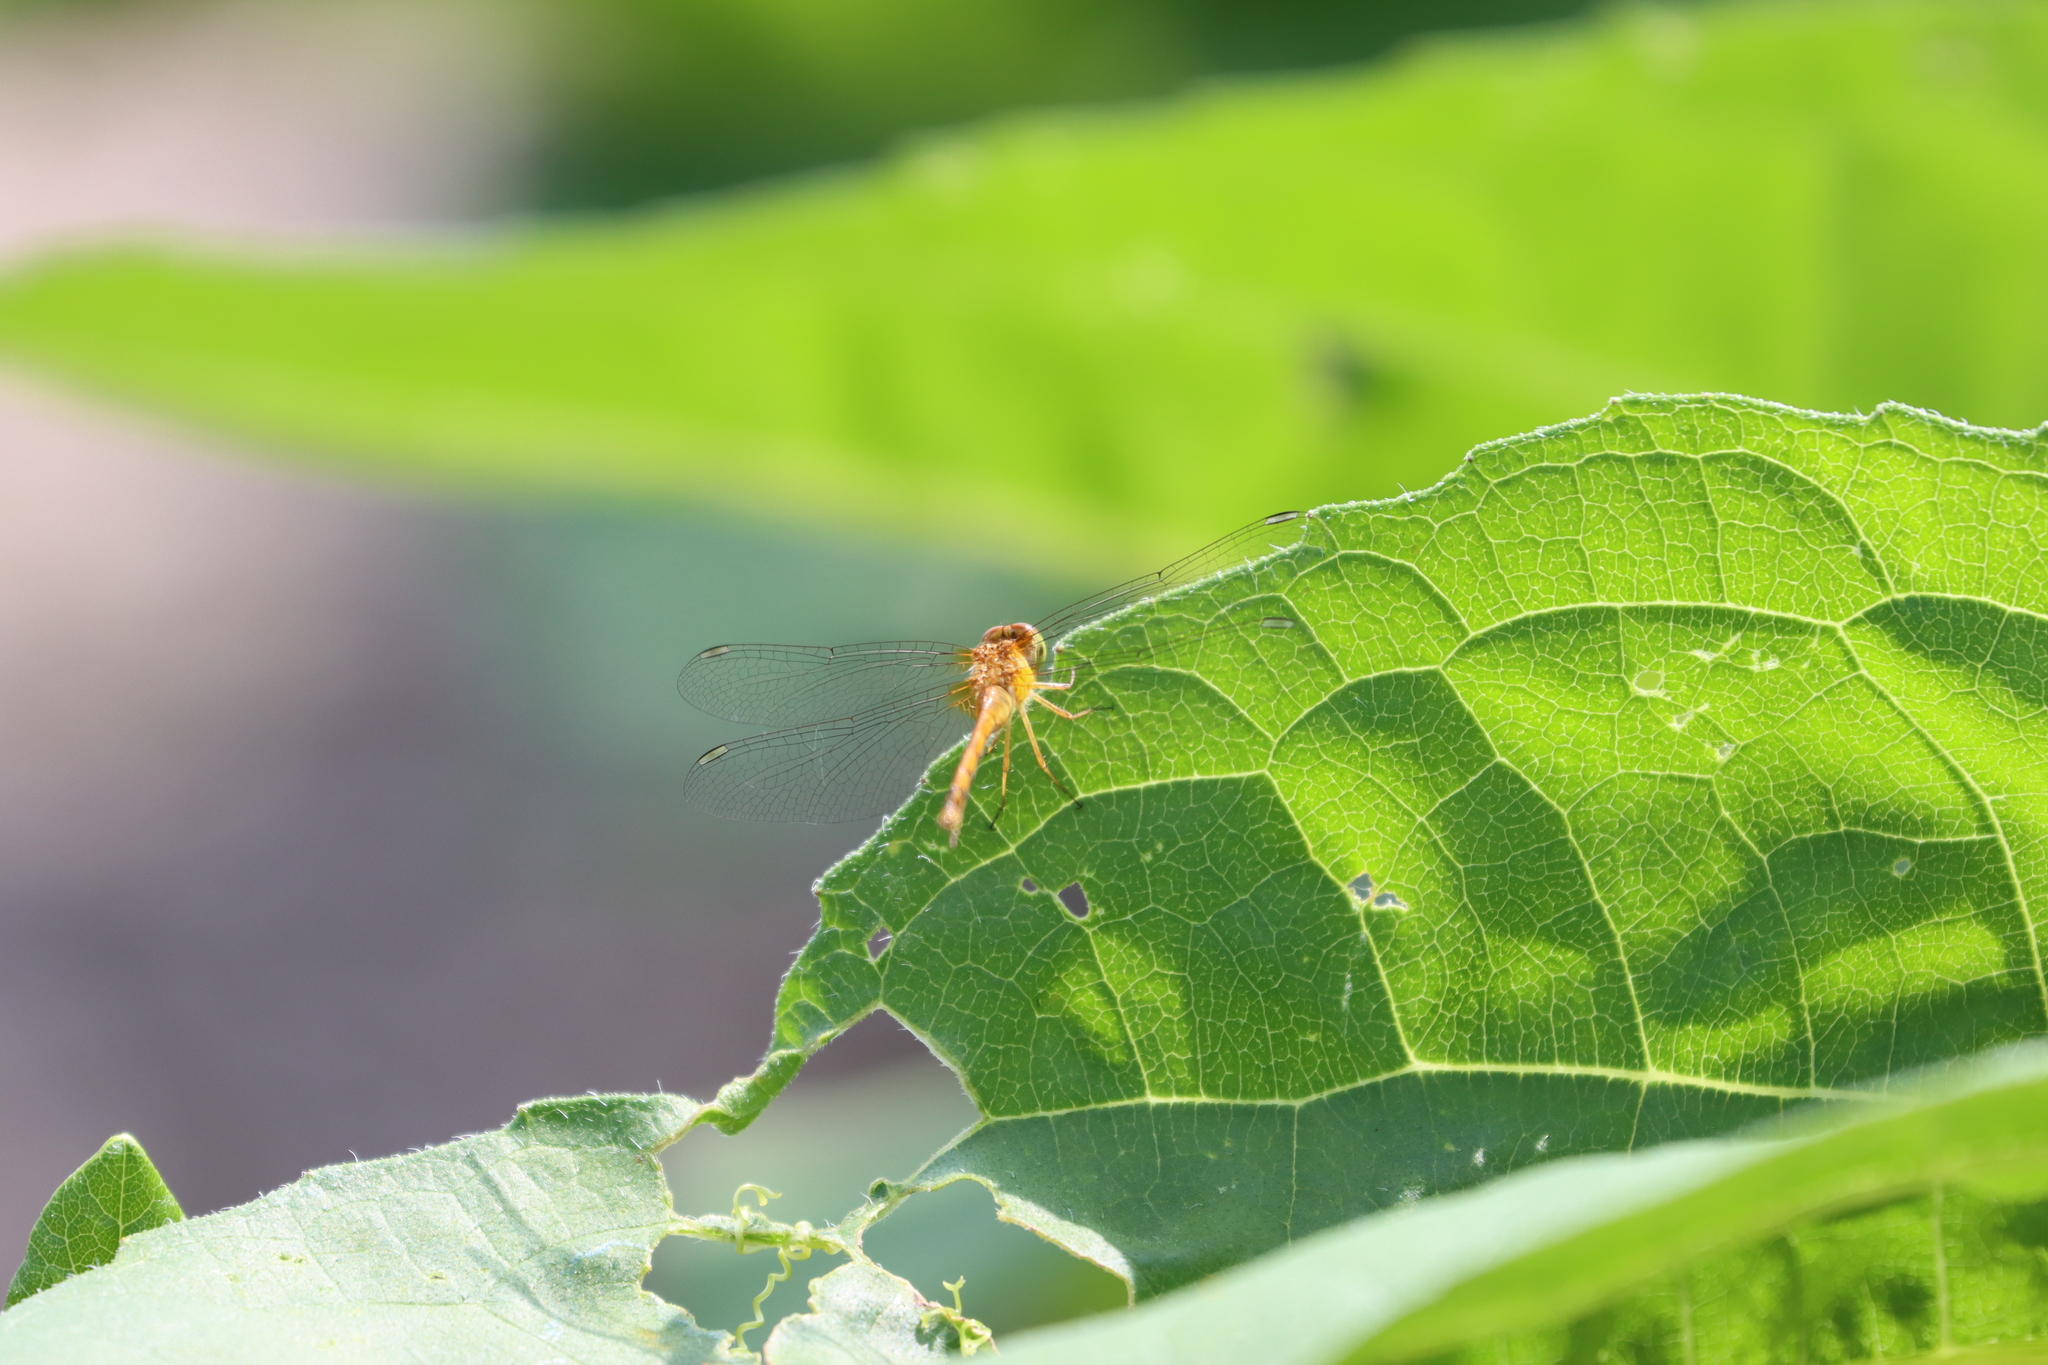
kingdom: Animalia
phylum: Arthropoda
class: Insecta
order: Odonata
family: Libellulidae
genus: Sympetrum
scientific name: Sympetrum vicinum
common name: Autumn meadowhawk
